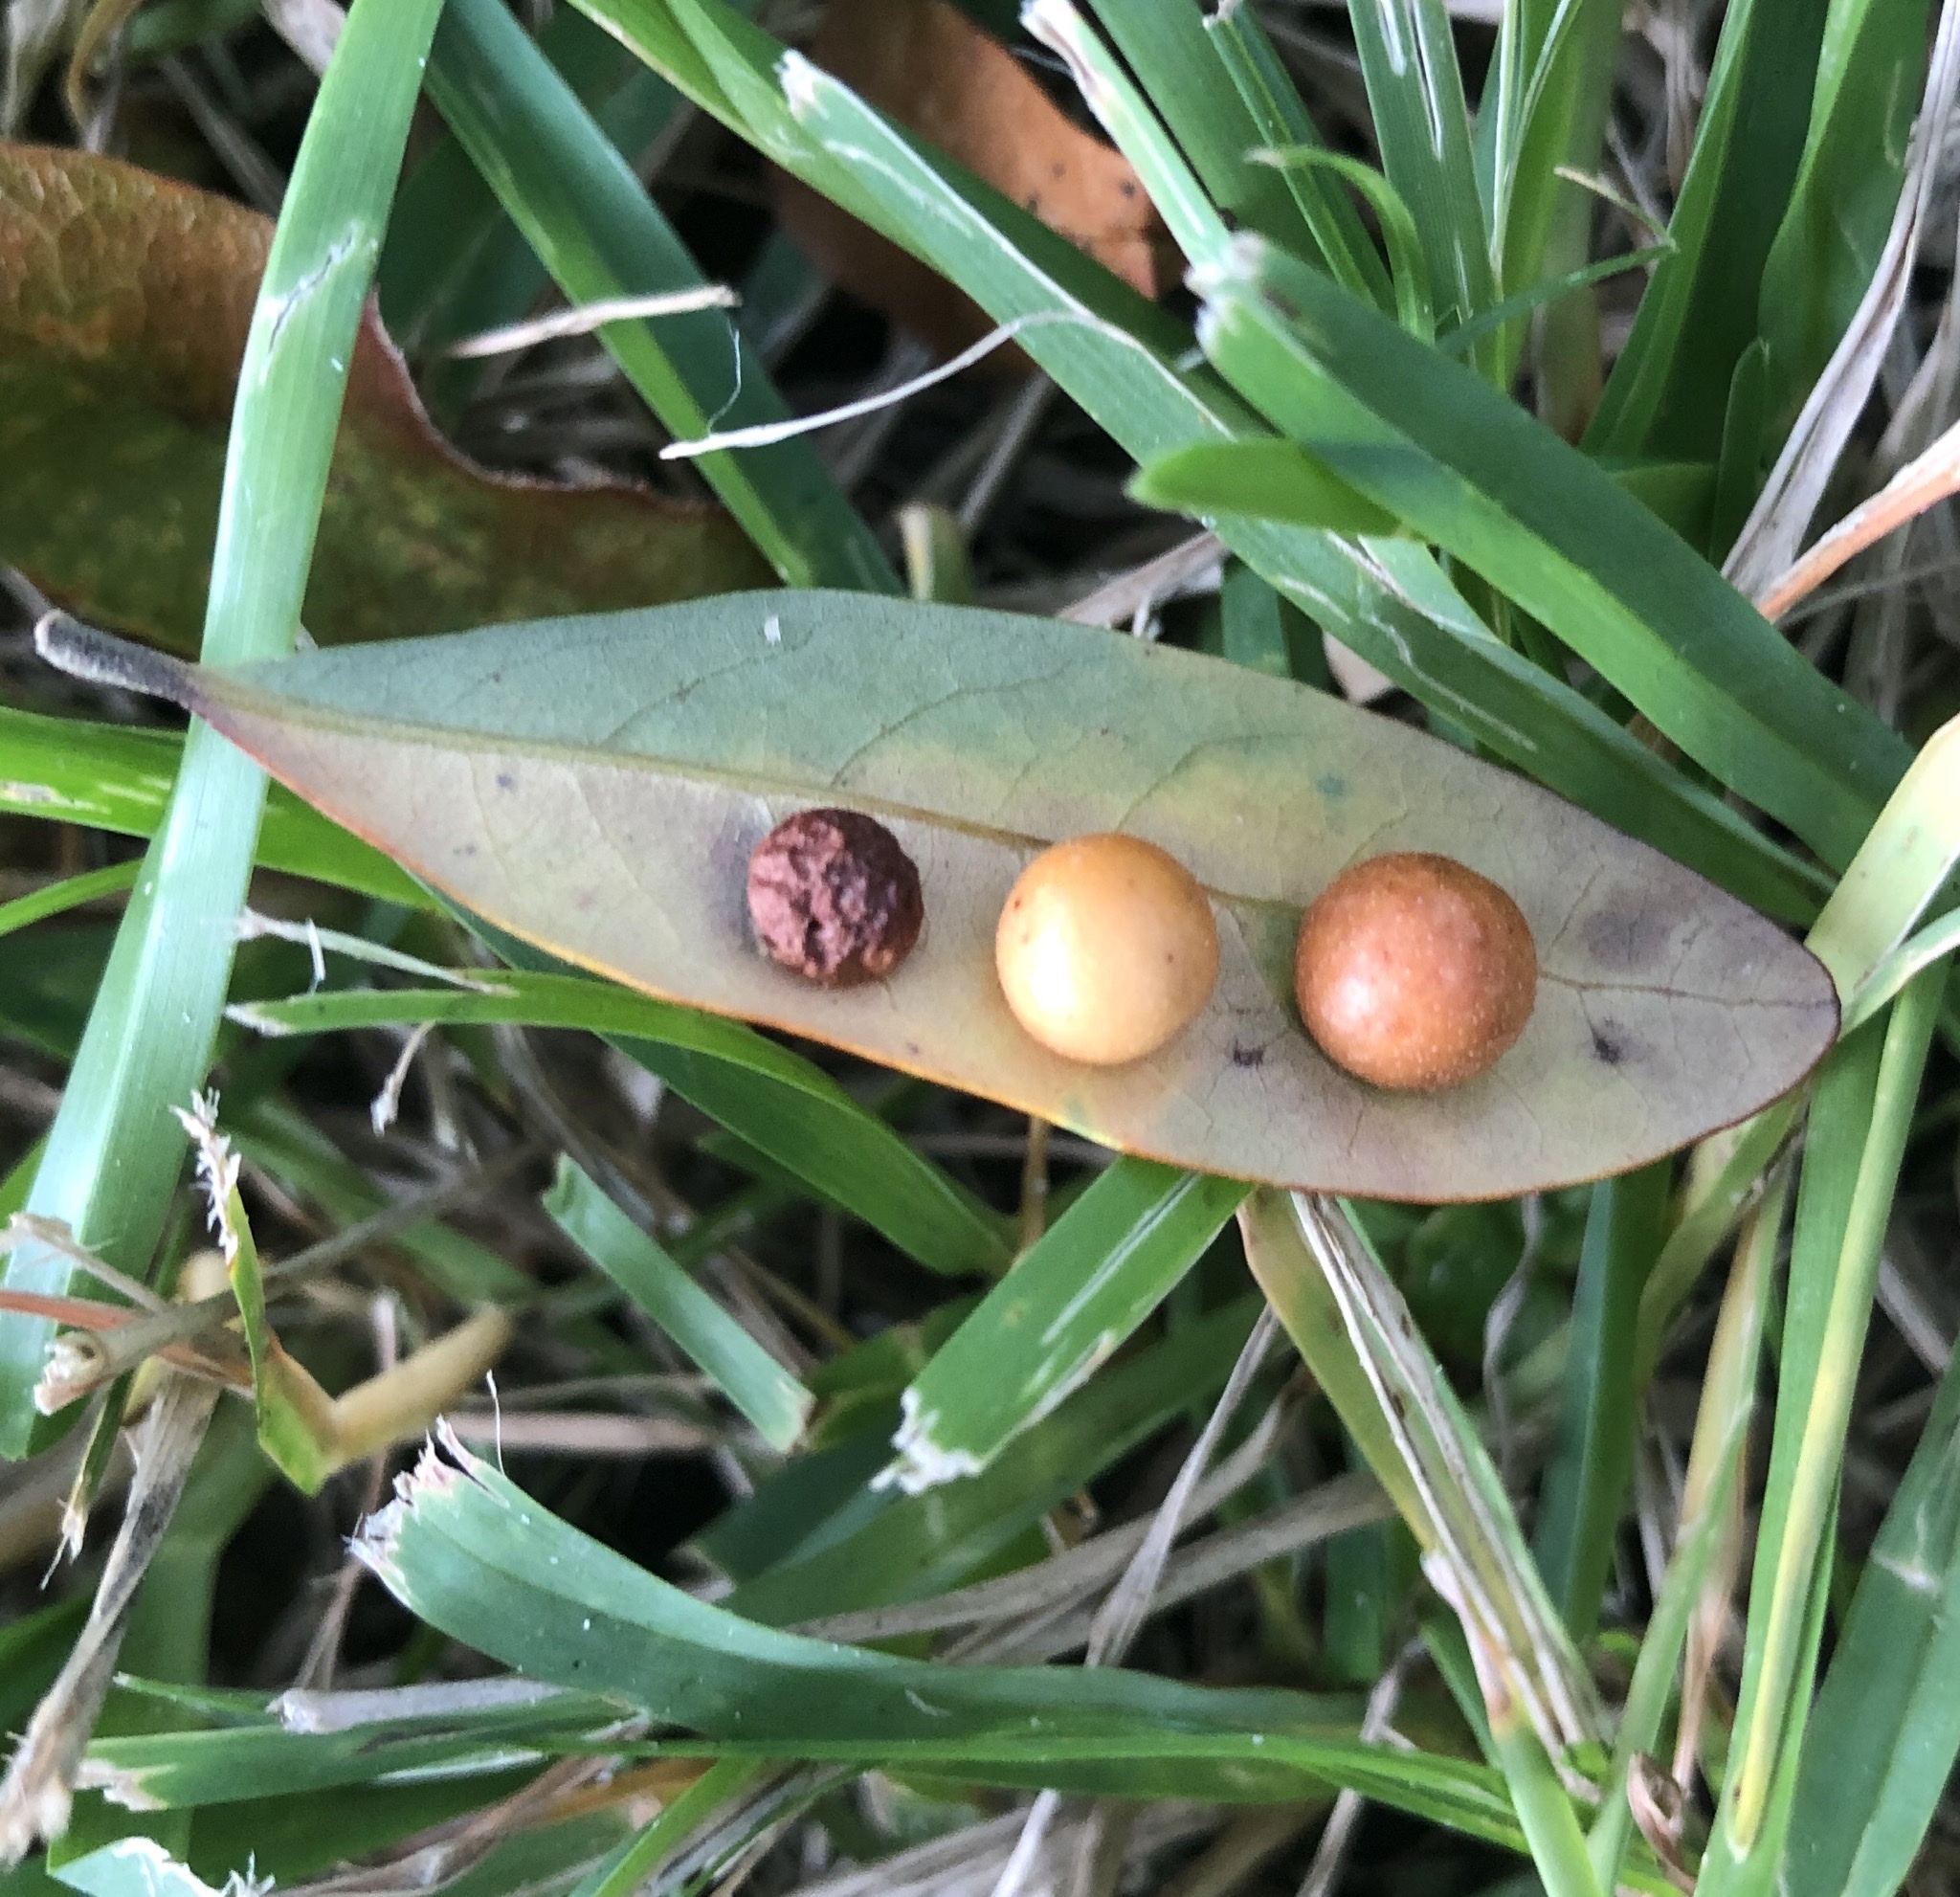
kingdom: Animalia
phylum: Arthropoda
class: Insecta
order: Hymenoptera
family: Cynipidae
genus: Belonocnema
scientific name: Belonocnema kinseyi
